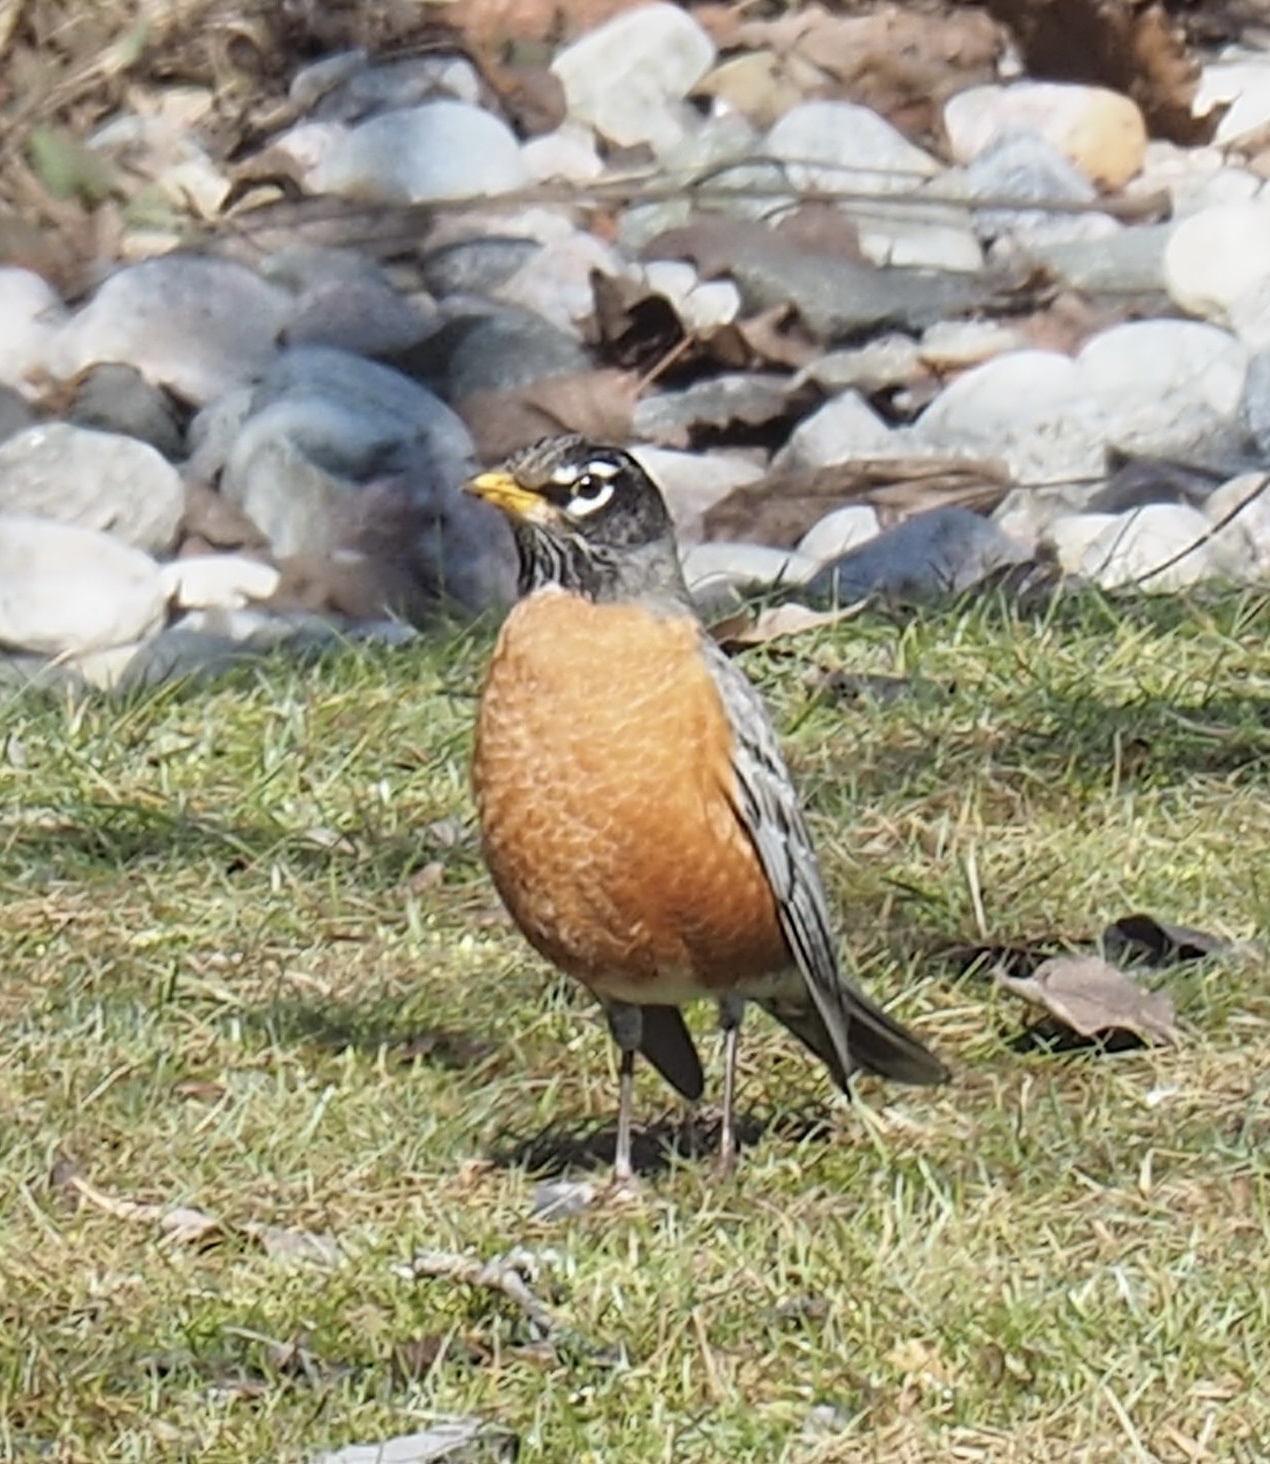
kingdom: Animalia
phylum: Chordata
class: Aves
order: Passeriformes
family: Turdidae
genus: Turdus
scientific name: Turdus migratorius
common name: American robin
